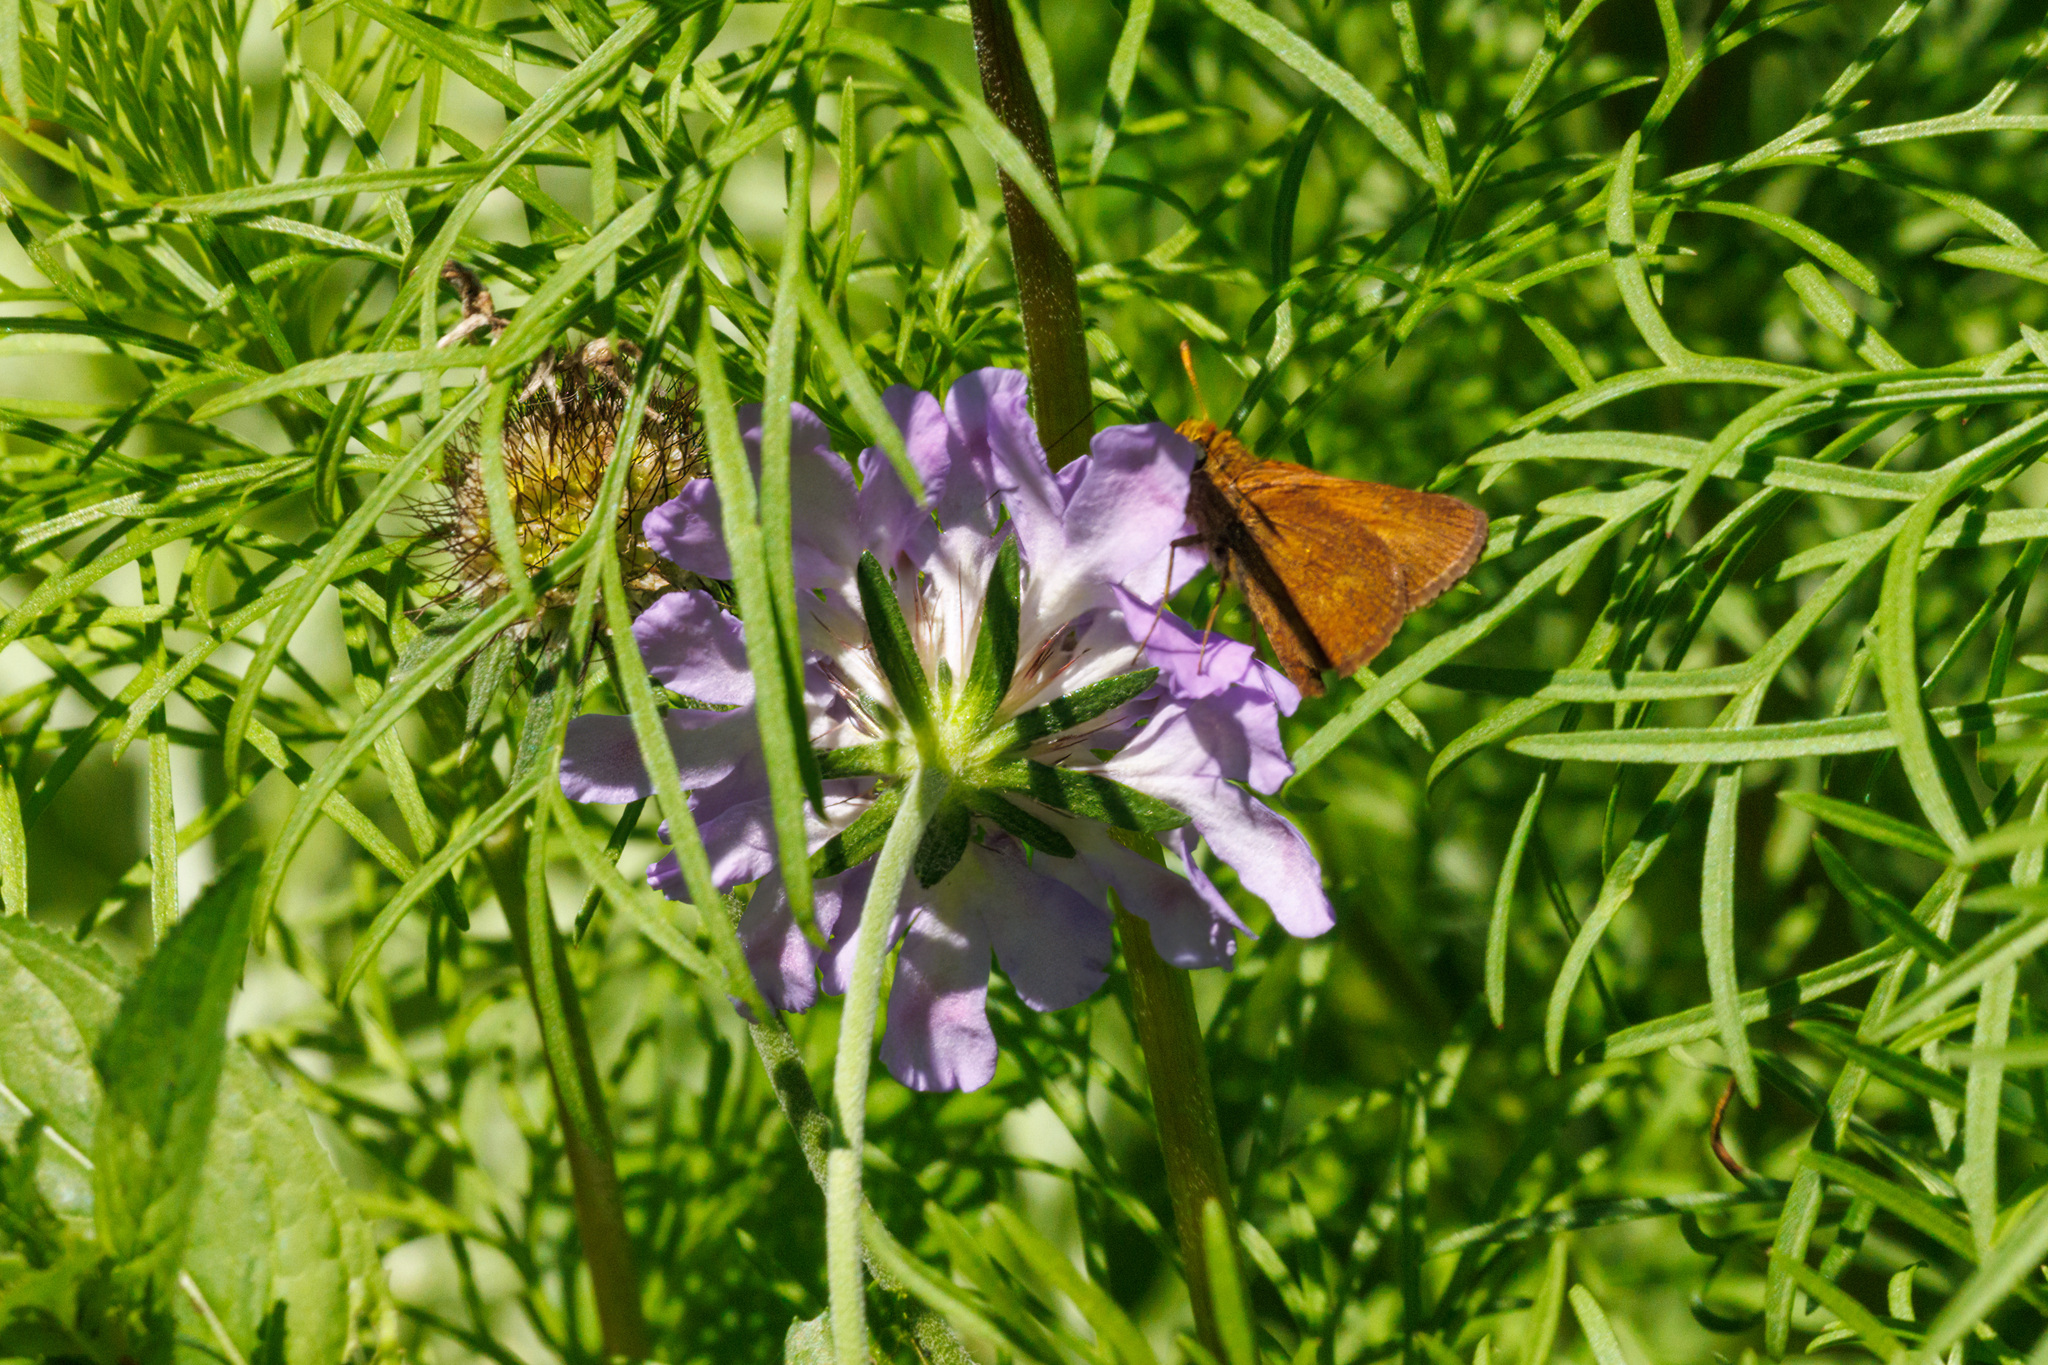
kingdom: Animalia
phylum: Arthropoda
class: Insecta
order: Lepidoptera
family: Hesperiidae
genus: Euphyes
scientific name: Euphyes vestris
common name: Dun skipper
